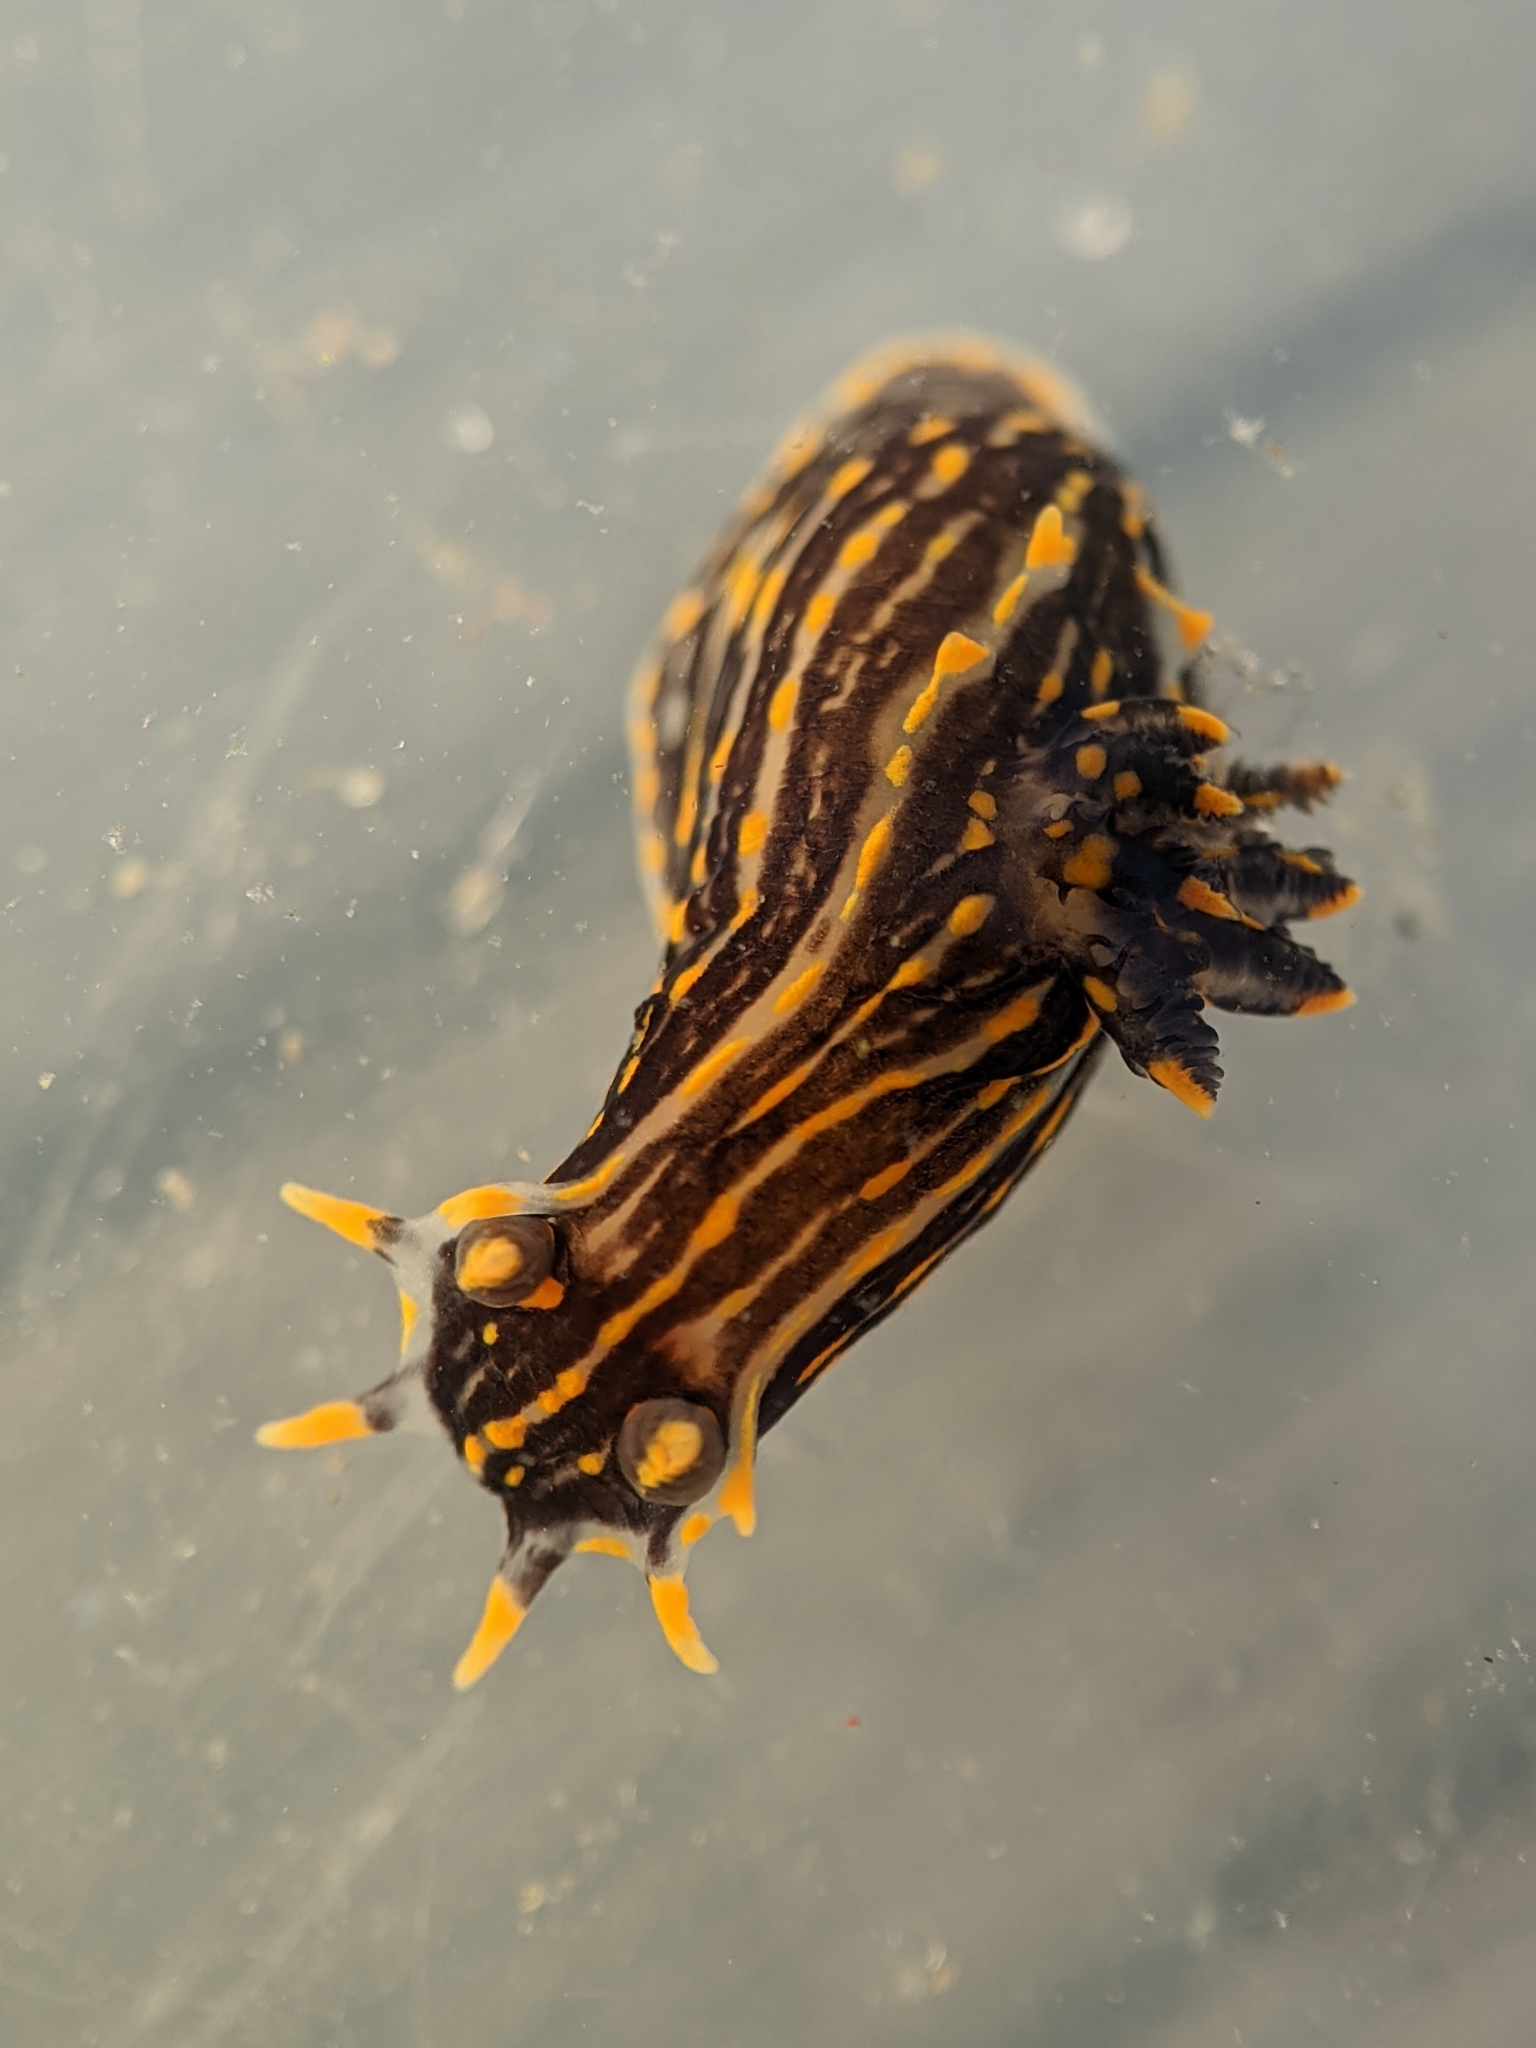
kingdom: Animalia
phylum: Mollusca
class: Gastropoda
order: Nudibranchia
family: Polyceridae
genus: Polycera
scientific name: Polycera atra
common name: Orange-spike polycera
